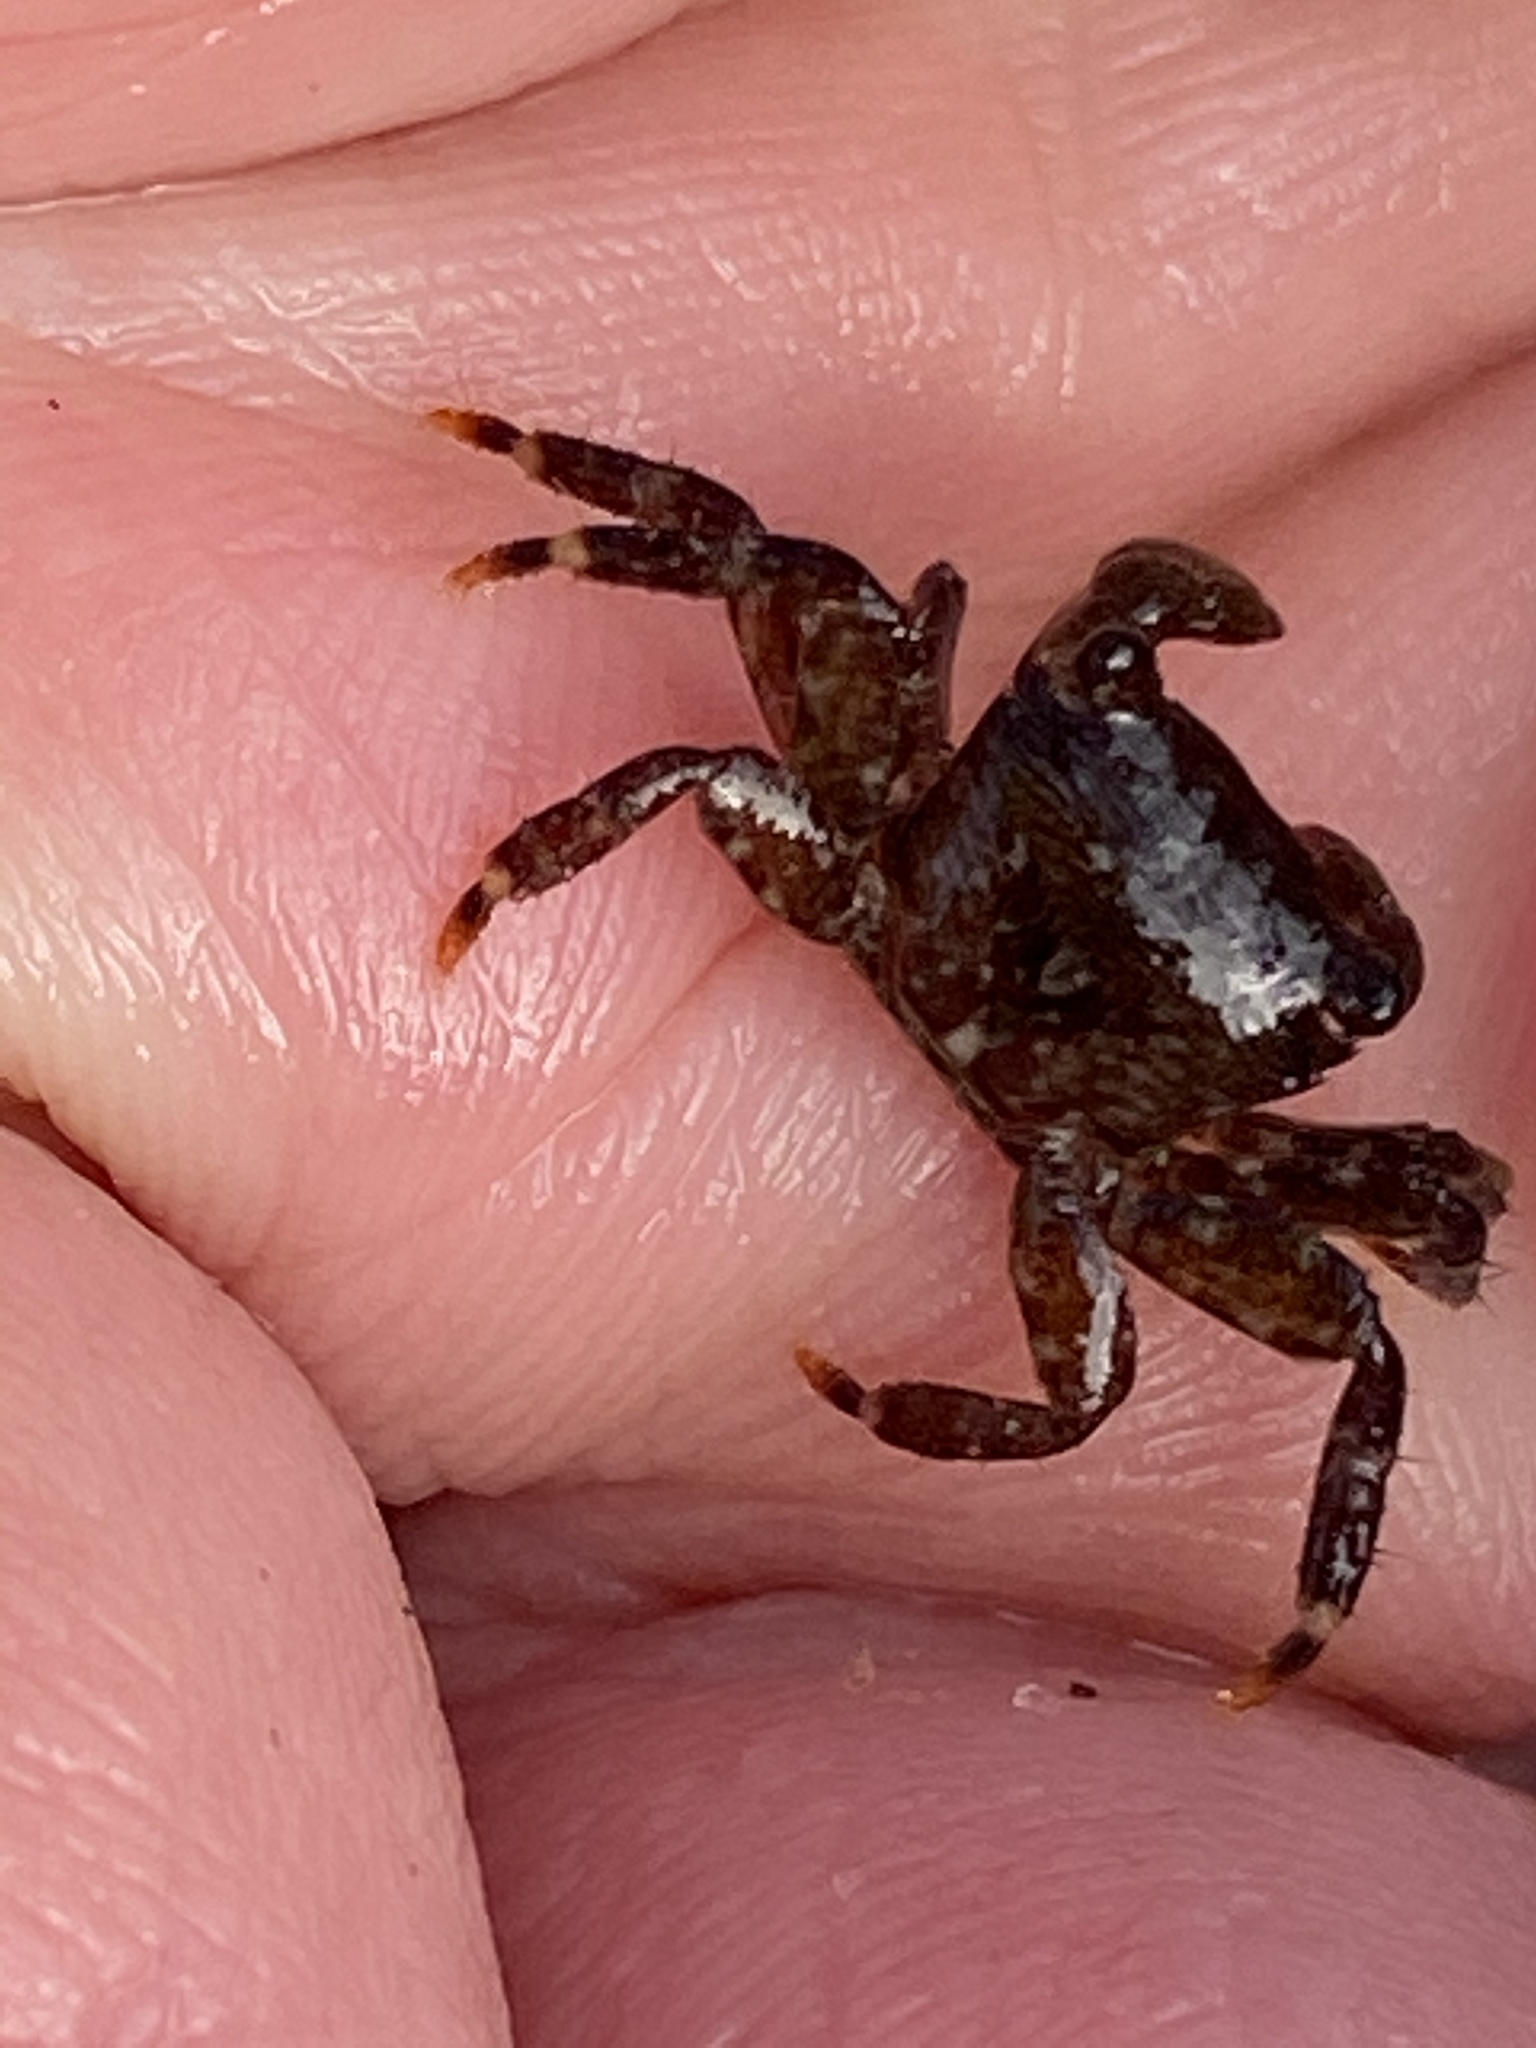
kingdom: Animalia
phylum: Arthropoda
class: Malacostraca
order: Decapoda
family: Grapsidae
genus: Pachygrapsus
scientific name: Pachygrapsus crassipes
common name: Striped shore crab
